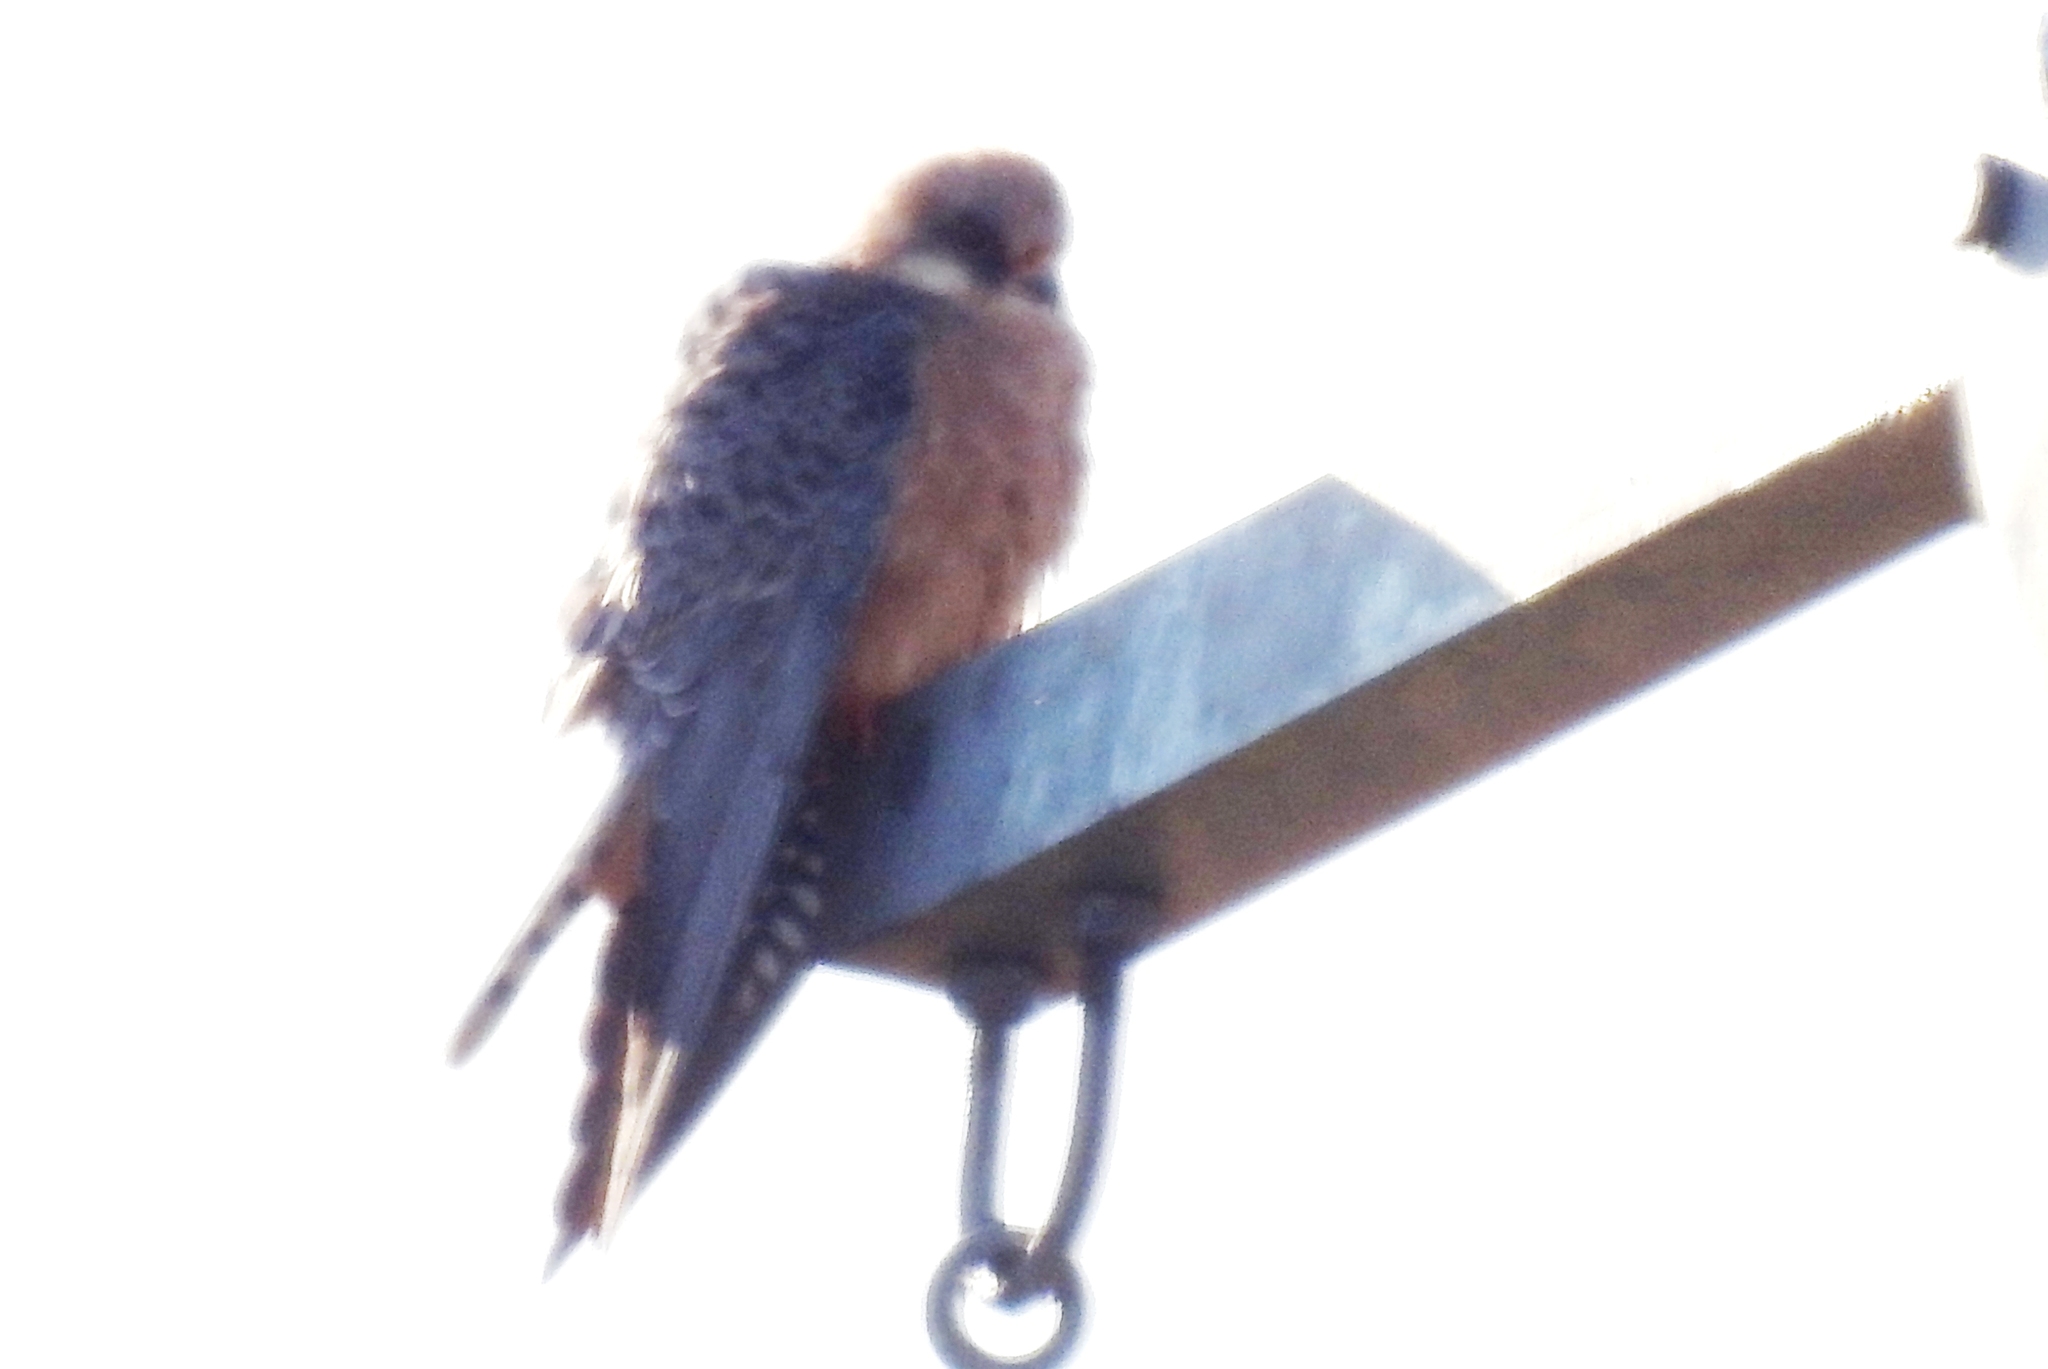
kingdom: Animalia
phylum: Chordata
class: Aves
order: Falconiformes
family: Falconidae
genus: Falco
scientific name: Falco vespertinus
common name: Red-footed falcon
